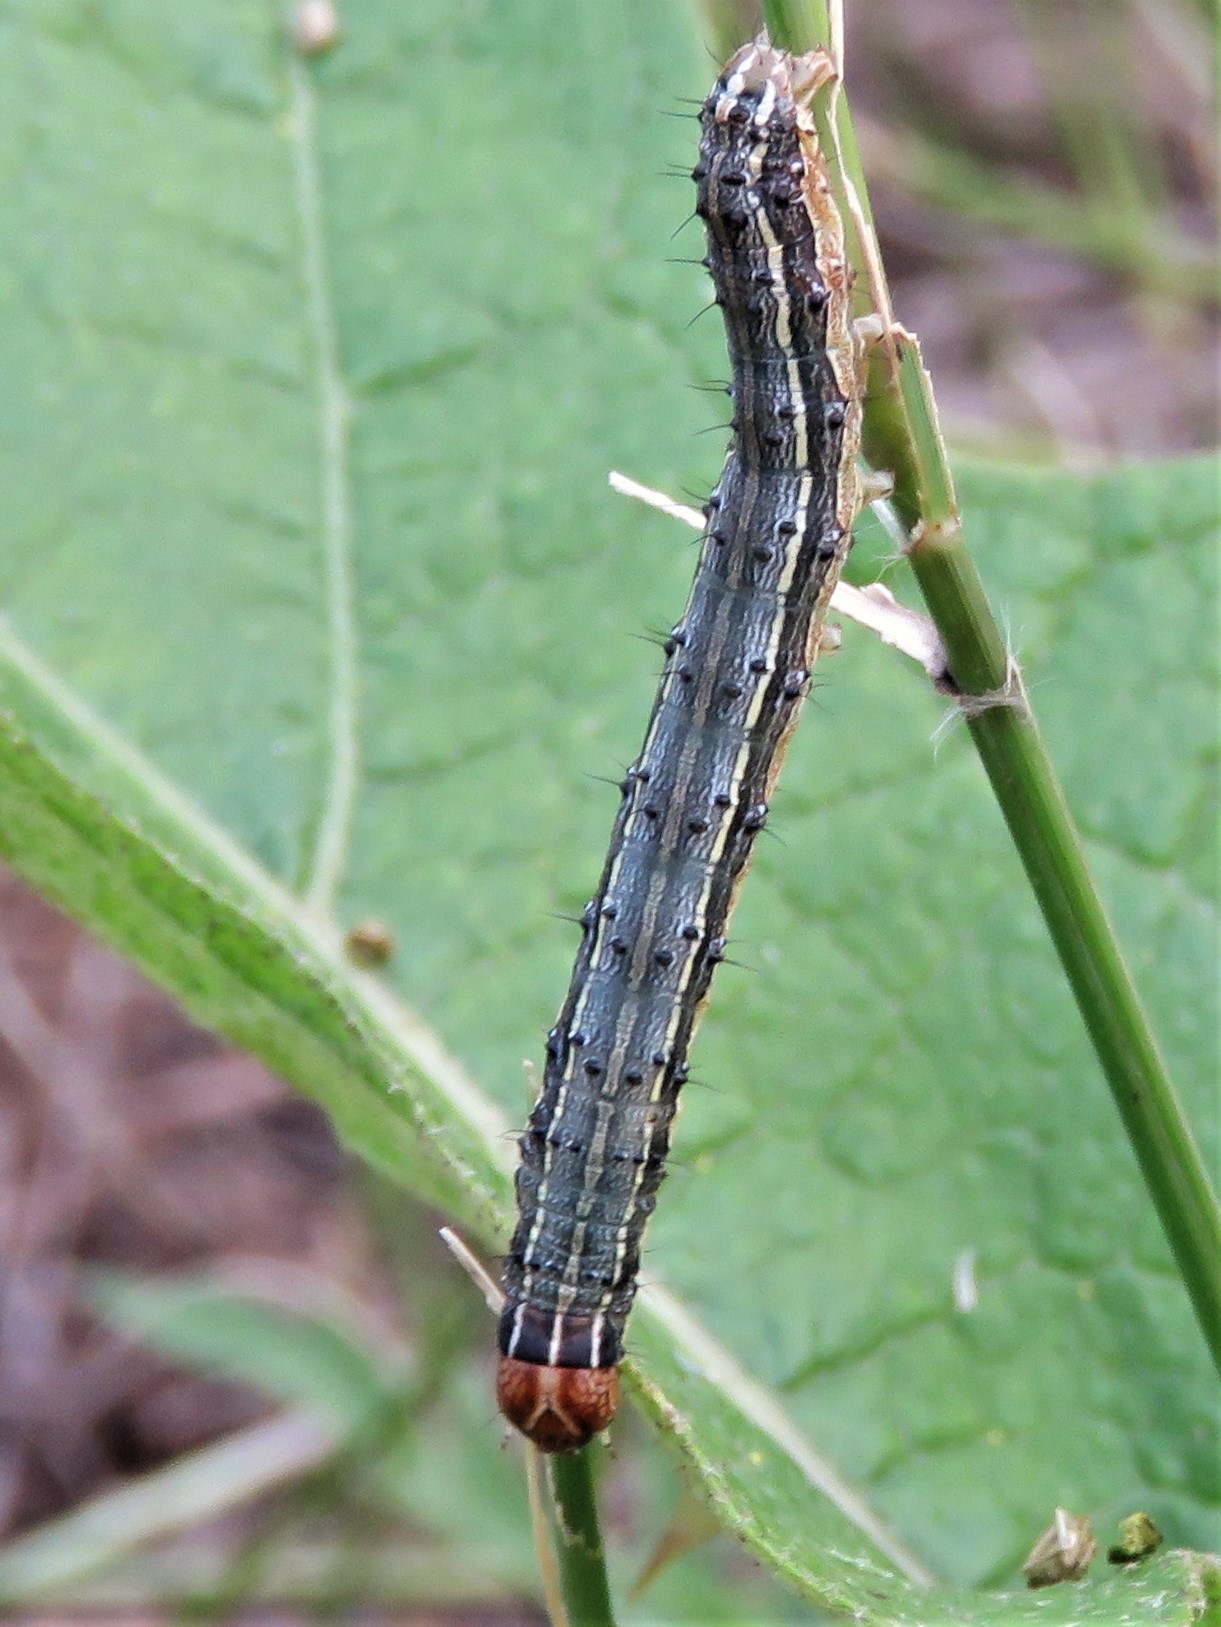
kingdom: Animalia
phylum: Arthropoda
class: Insecta
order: Lepidoptera
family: Noctuidae
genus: Spodoptera
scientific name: Spodoptera frugiperda
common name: Fall armyworm
